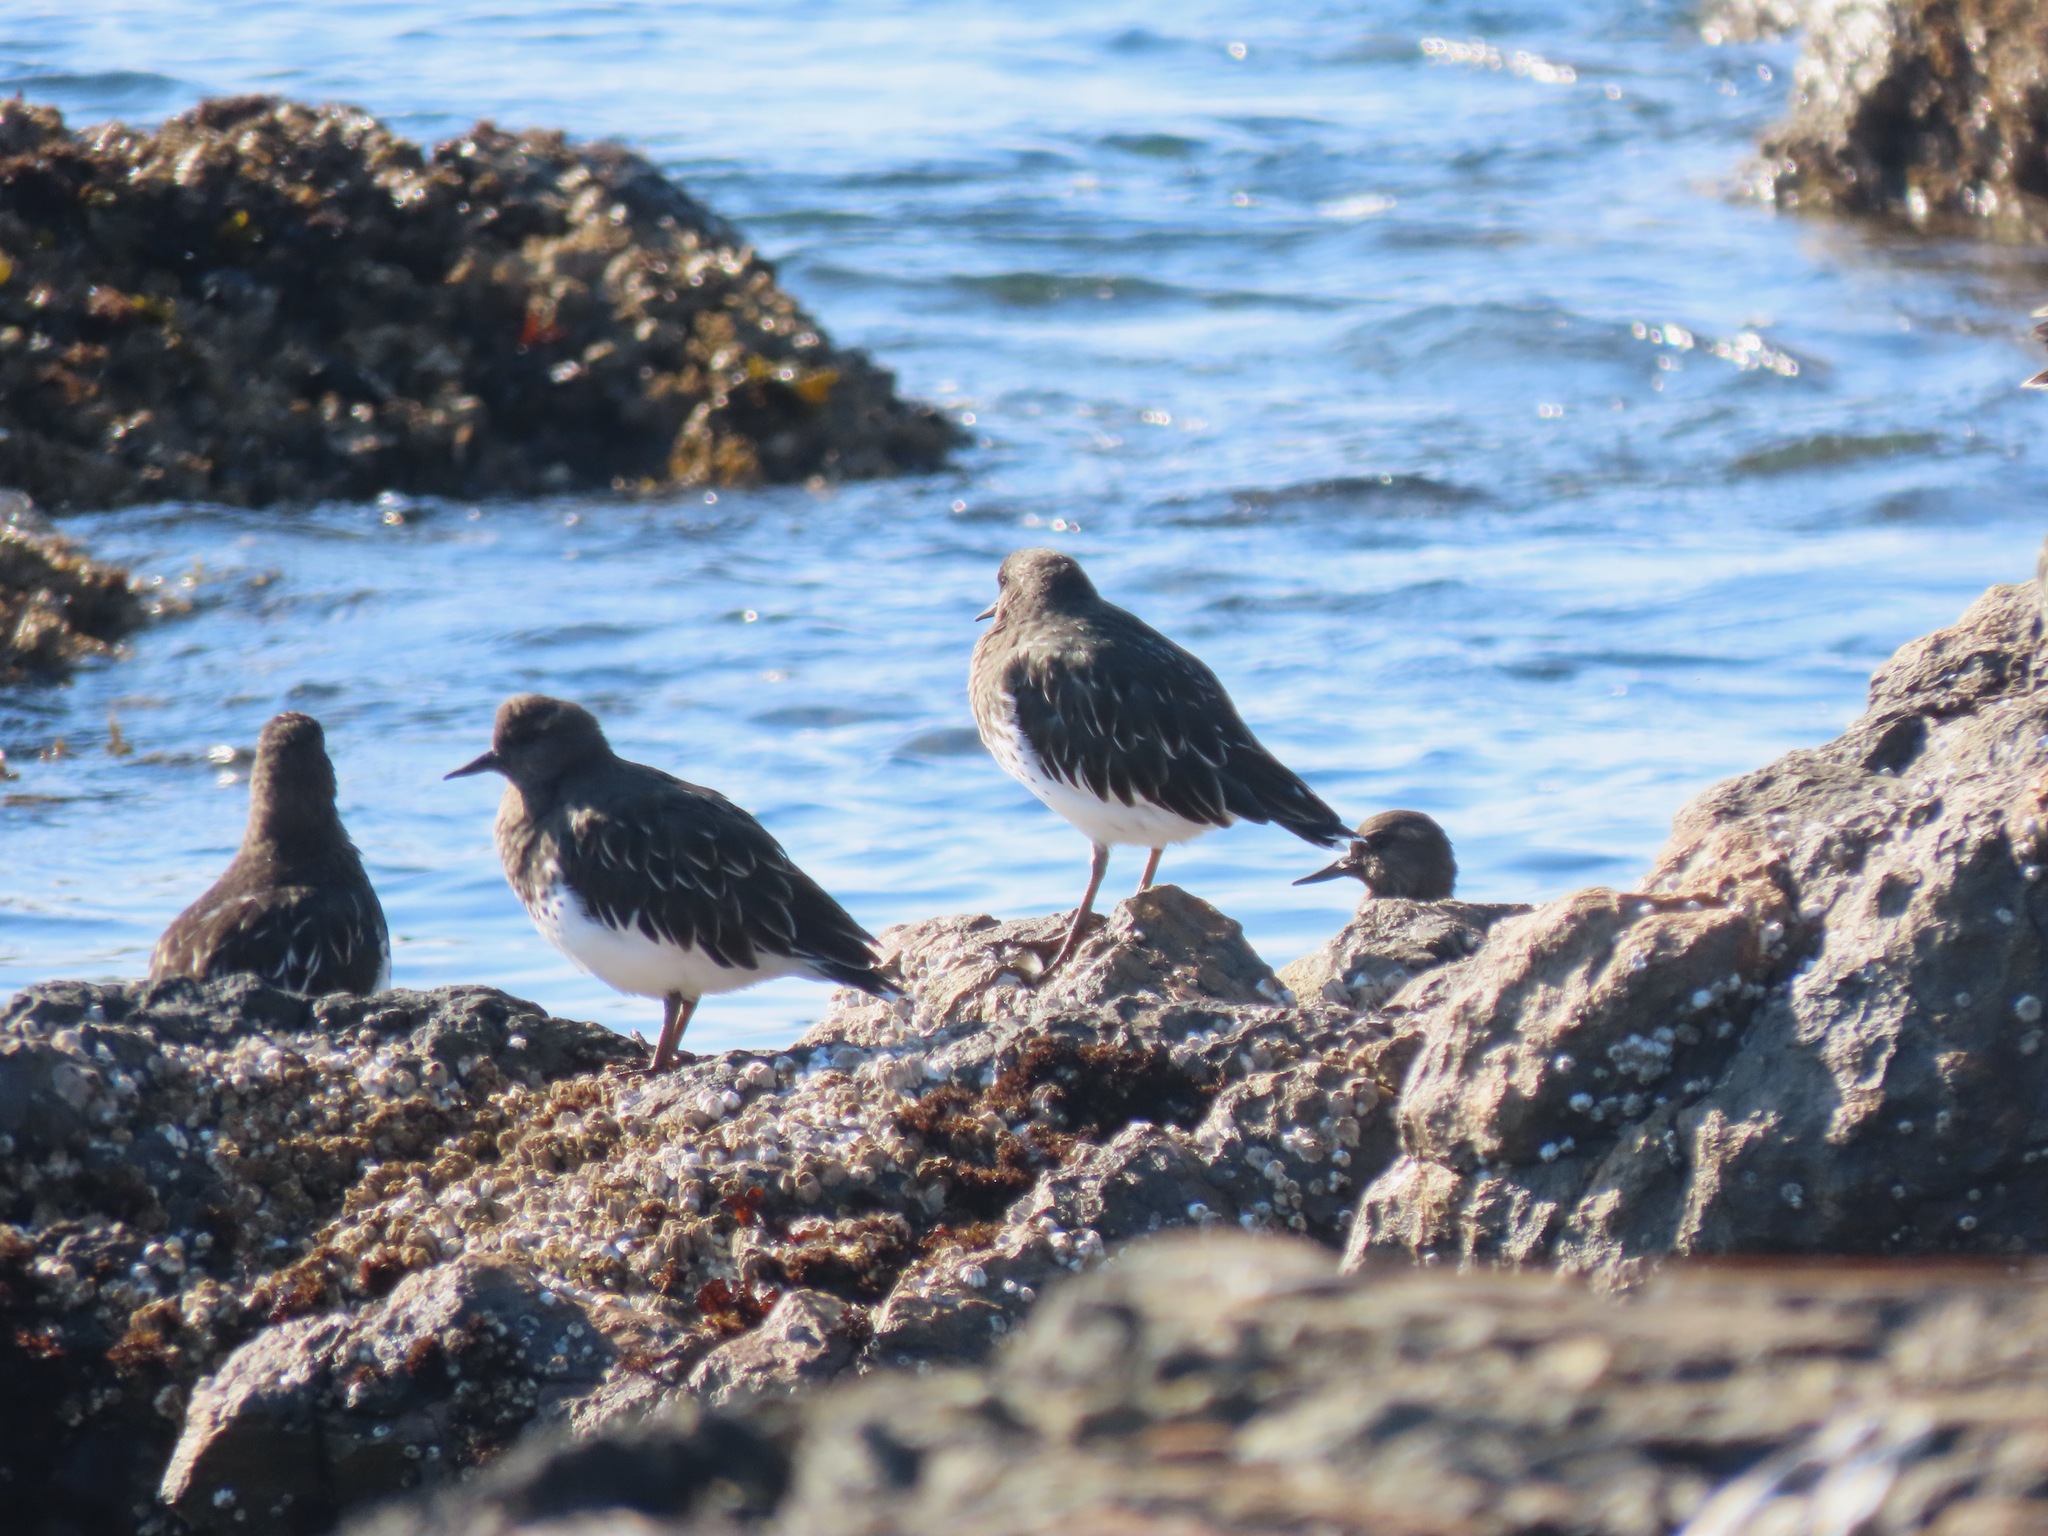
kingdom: Animalia
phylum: Chordata
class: Aves
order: Charadriiformes
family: Scolopacidae
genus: Arenaria
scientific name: Arenaria melanocephala
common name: Black turnstone
